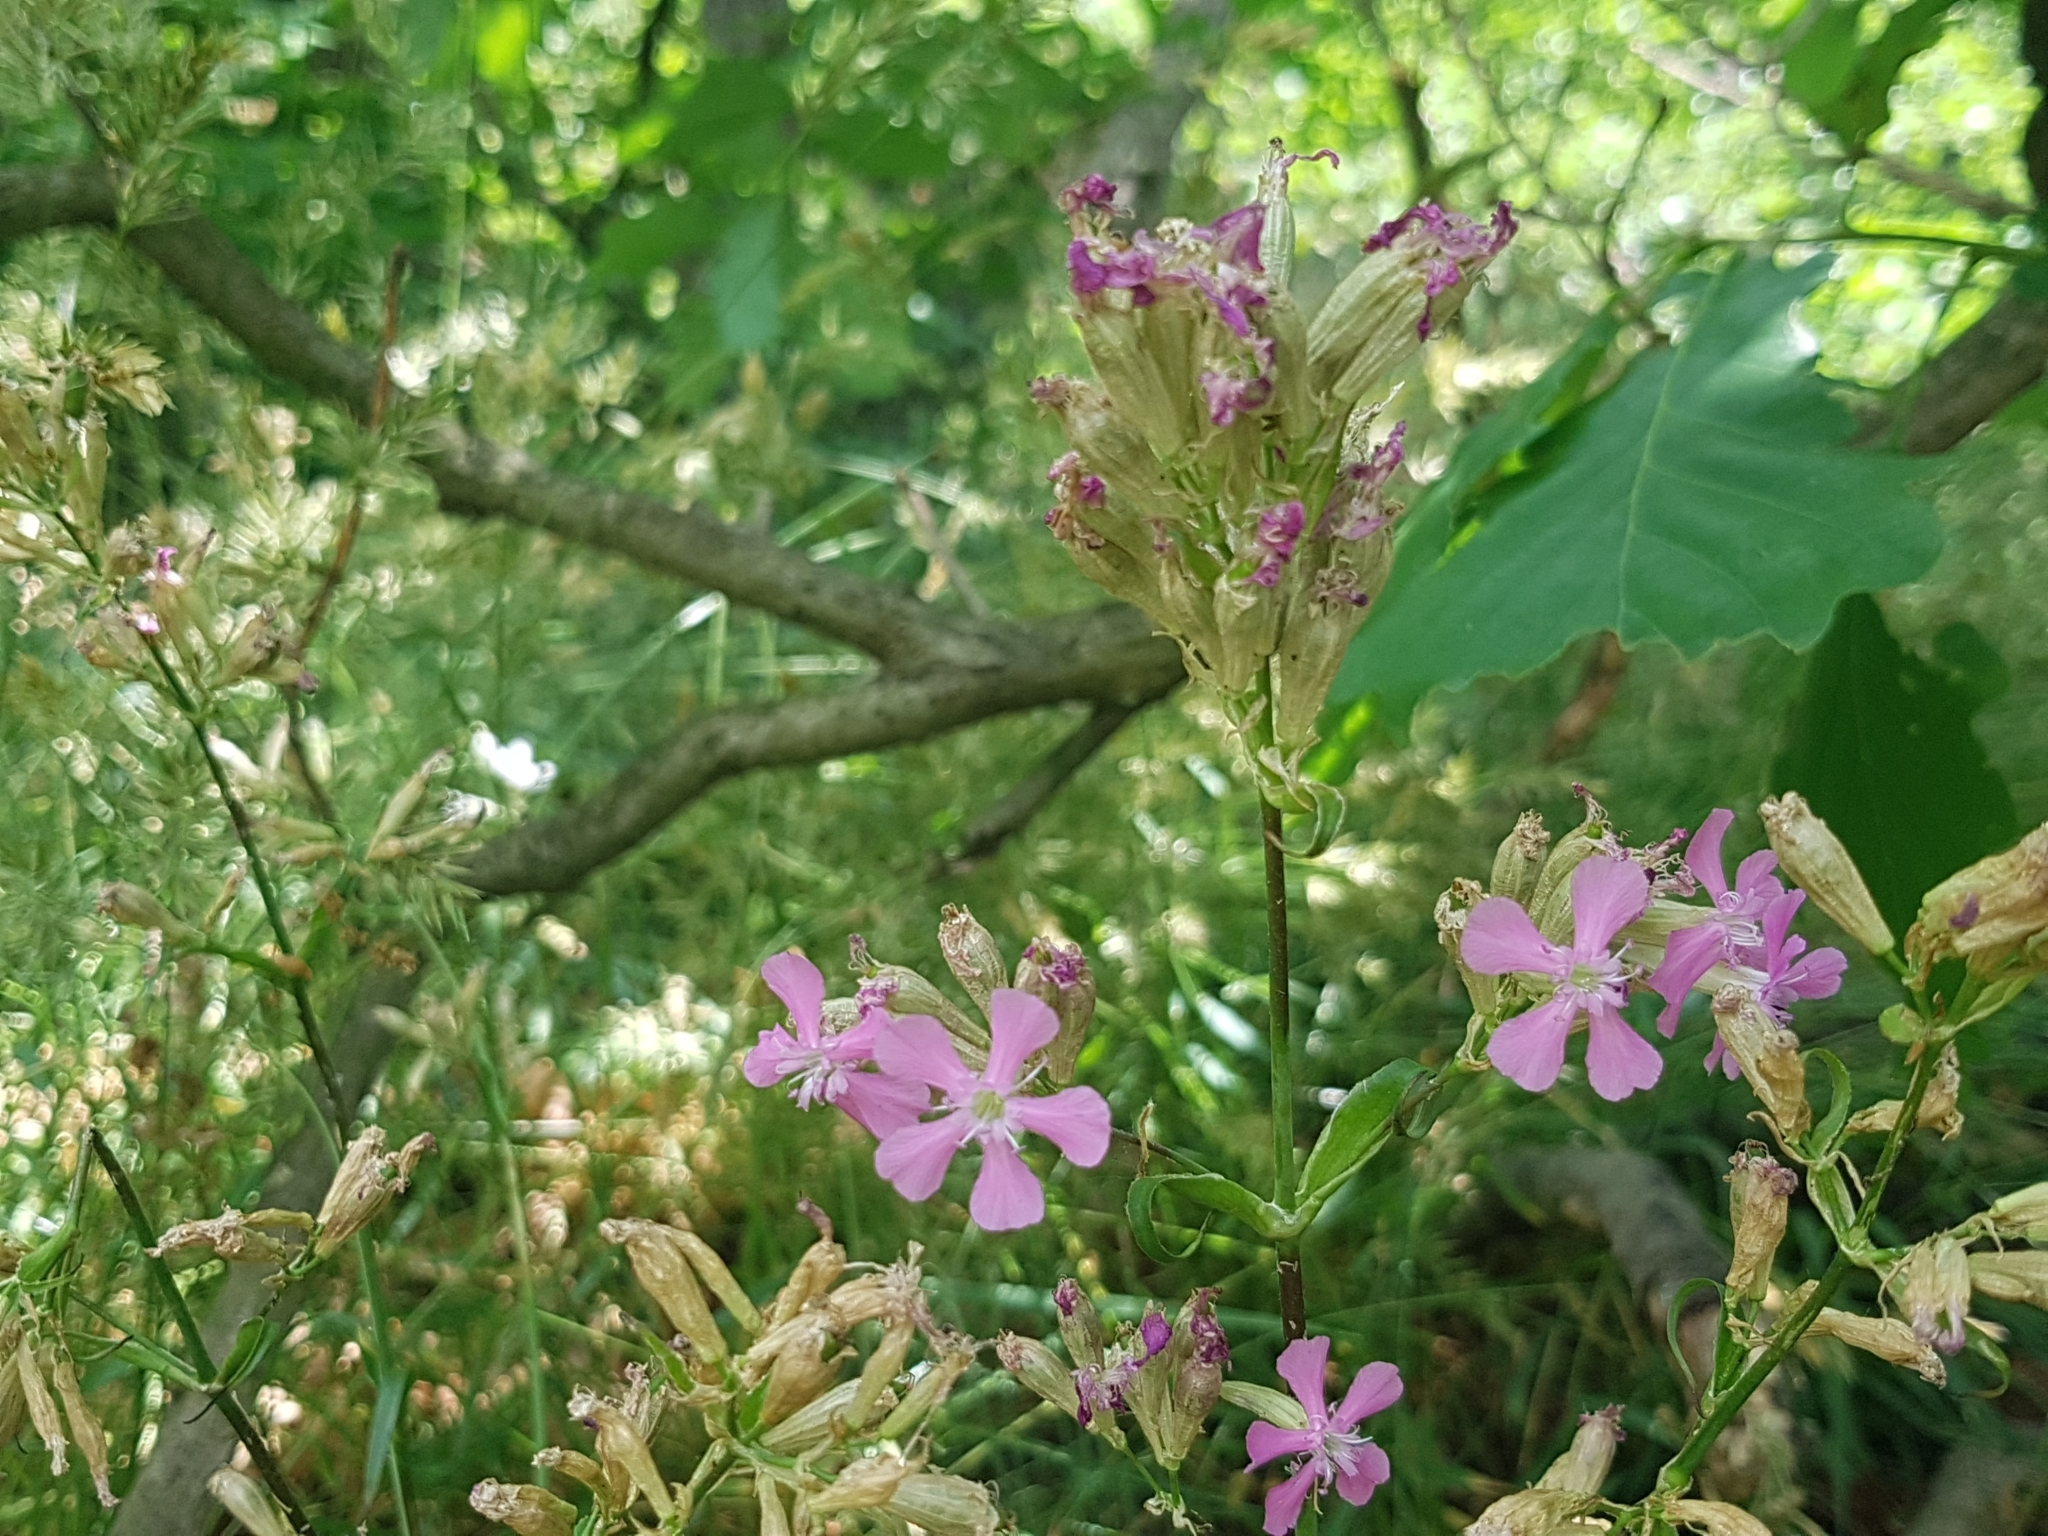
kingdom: Plantae
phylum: Tracheophyta
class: Magnoliopsida
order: Caryophyllales
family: Caryophyllaceae
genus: Viscaria
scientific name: Viscaria vulgaris
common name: Clammy campion
